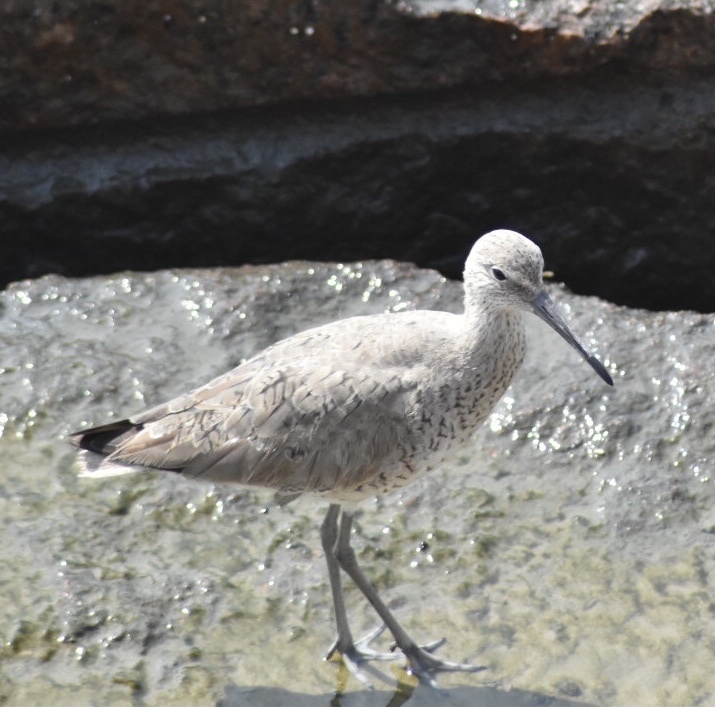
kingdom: Animalia
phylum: Chordata
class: Aves
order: Charadriiformes
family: Scolopacidae
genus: Tringa
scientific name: Tringa semipalmata
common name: Willet
